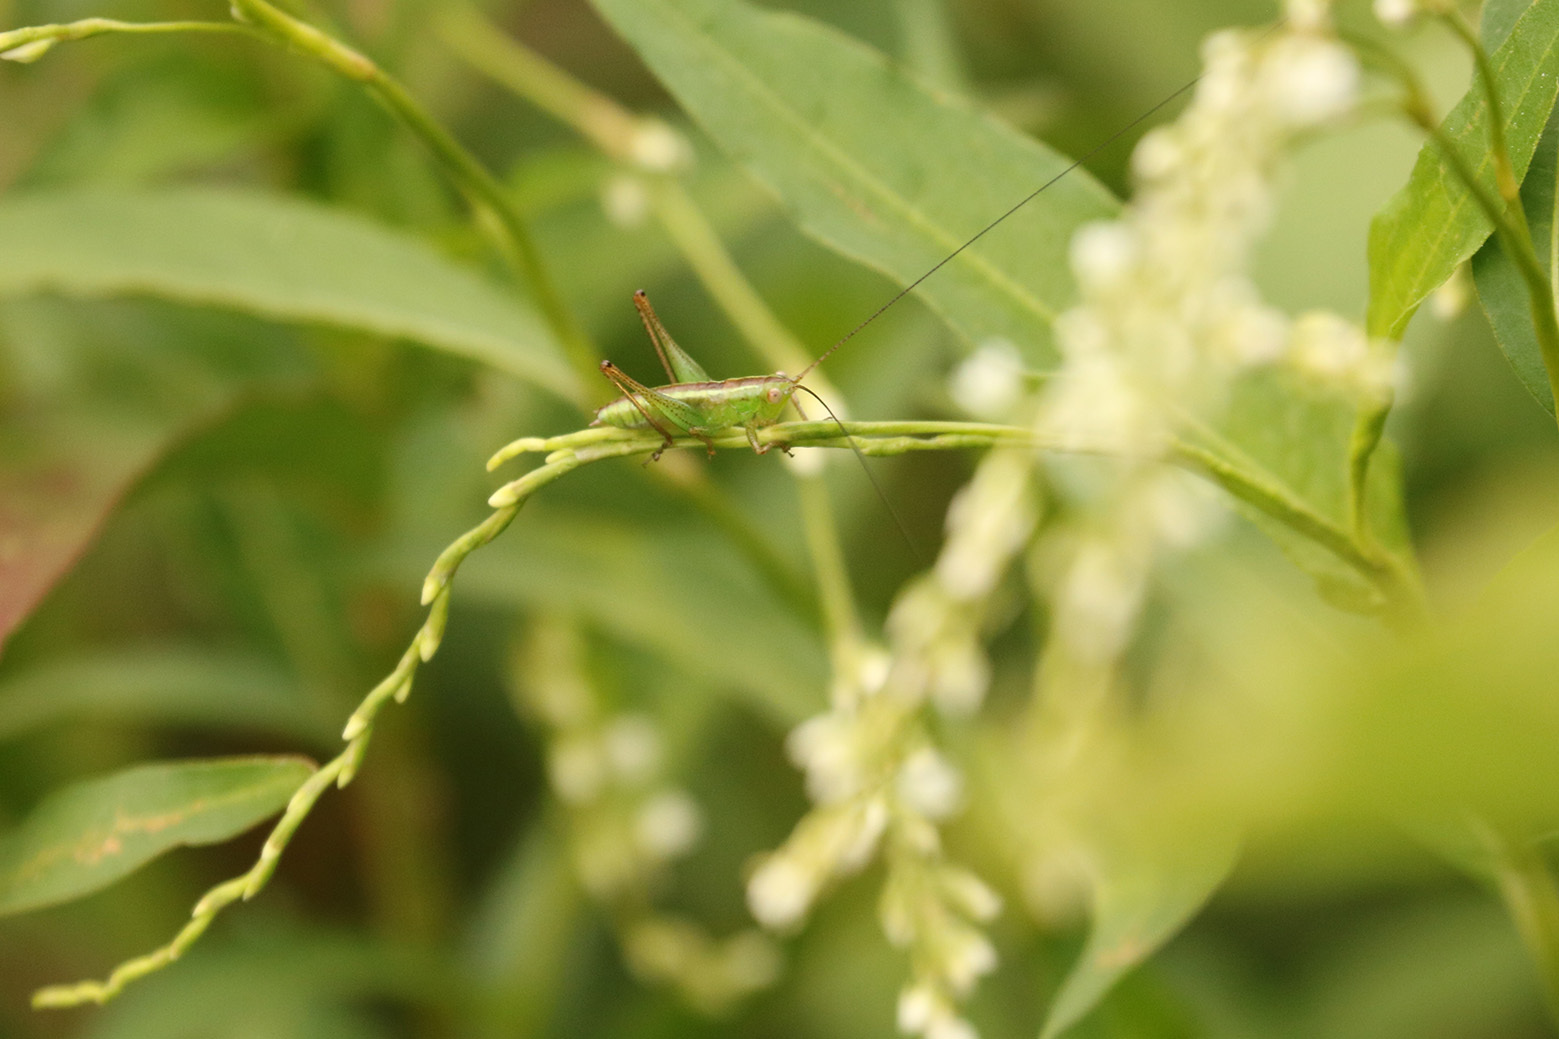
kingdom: Animalia
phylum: Arthropoda
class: Insecta
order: Orthoptera
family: Tettigoniidae
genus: Conocephalus
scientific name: Conocephalus longipes
